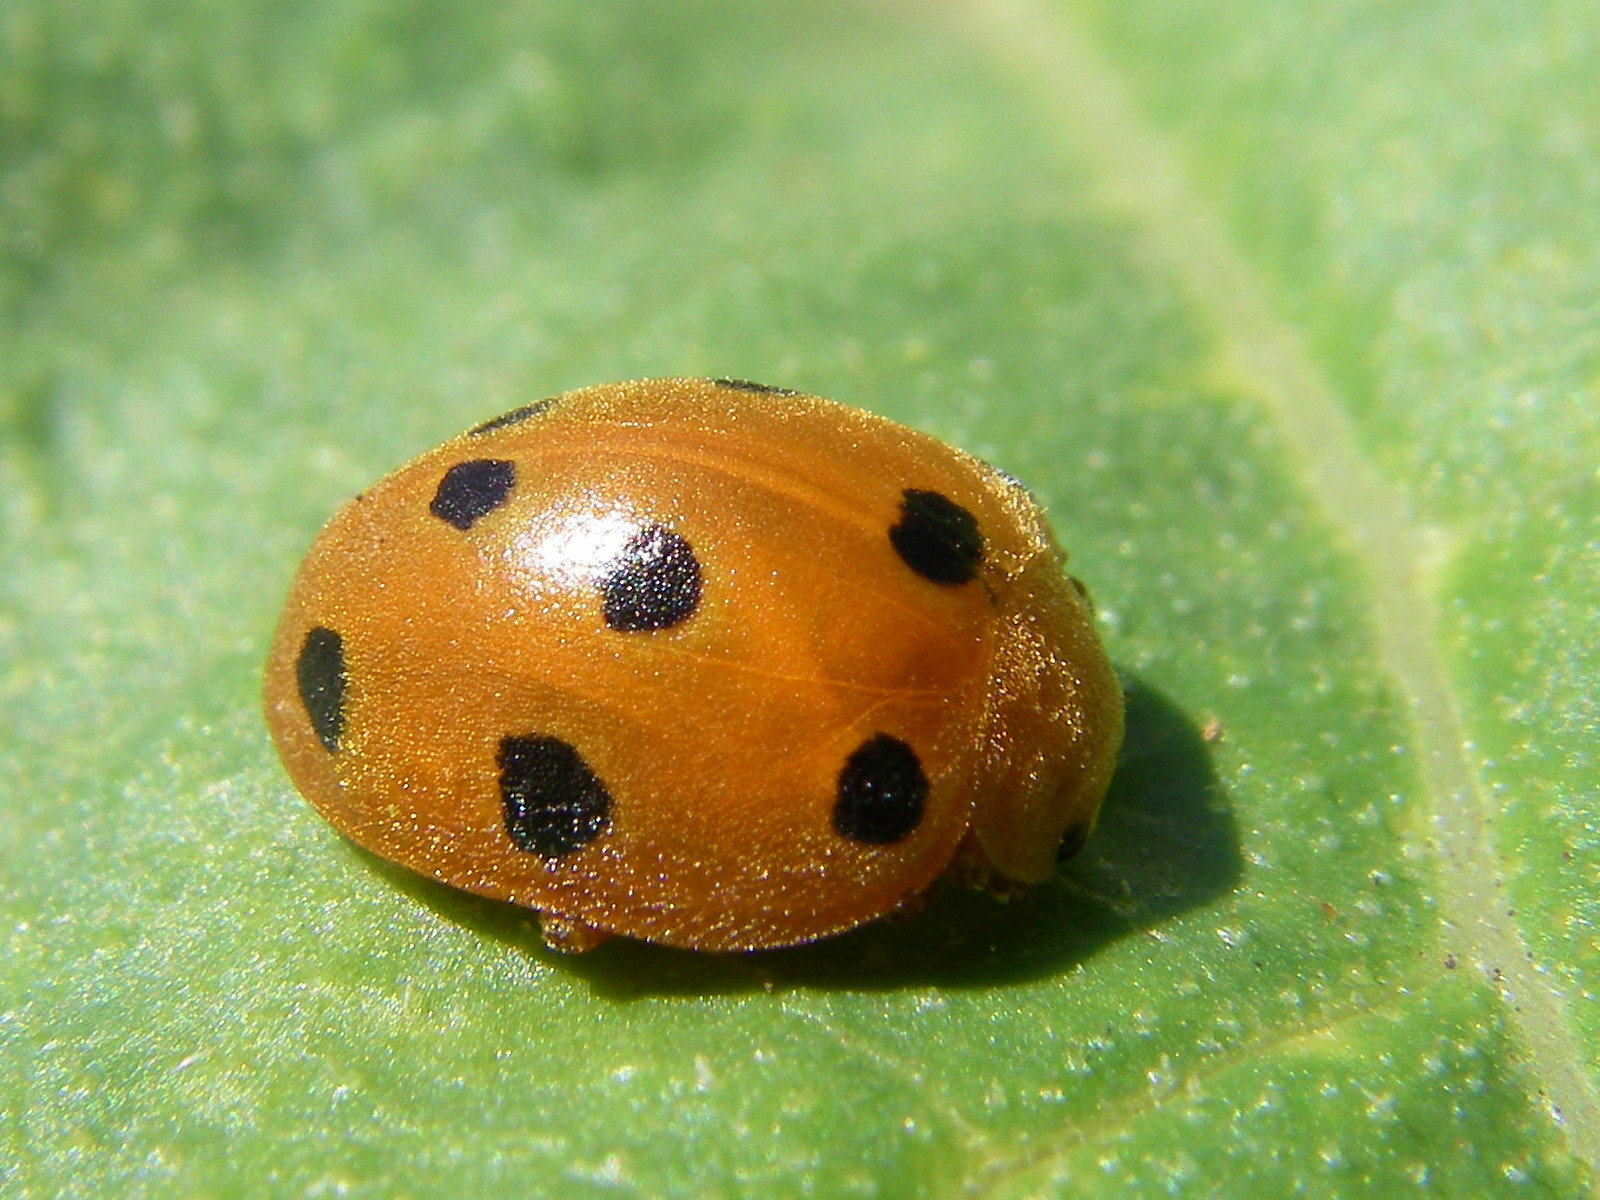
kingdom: Animalia
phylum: Arthropoda
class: Insecta
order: Coleoptera
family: Coccinellidae
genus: Henosepilachna
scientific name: Henosepilachna argus
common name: Bryony ladybird
